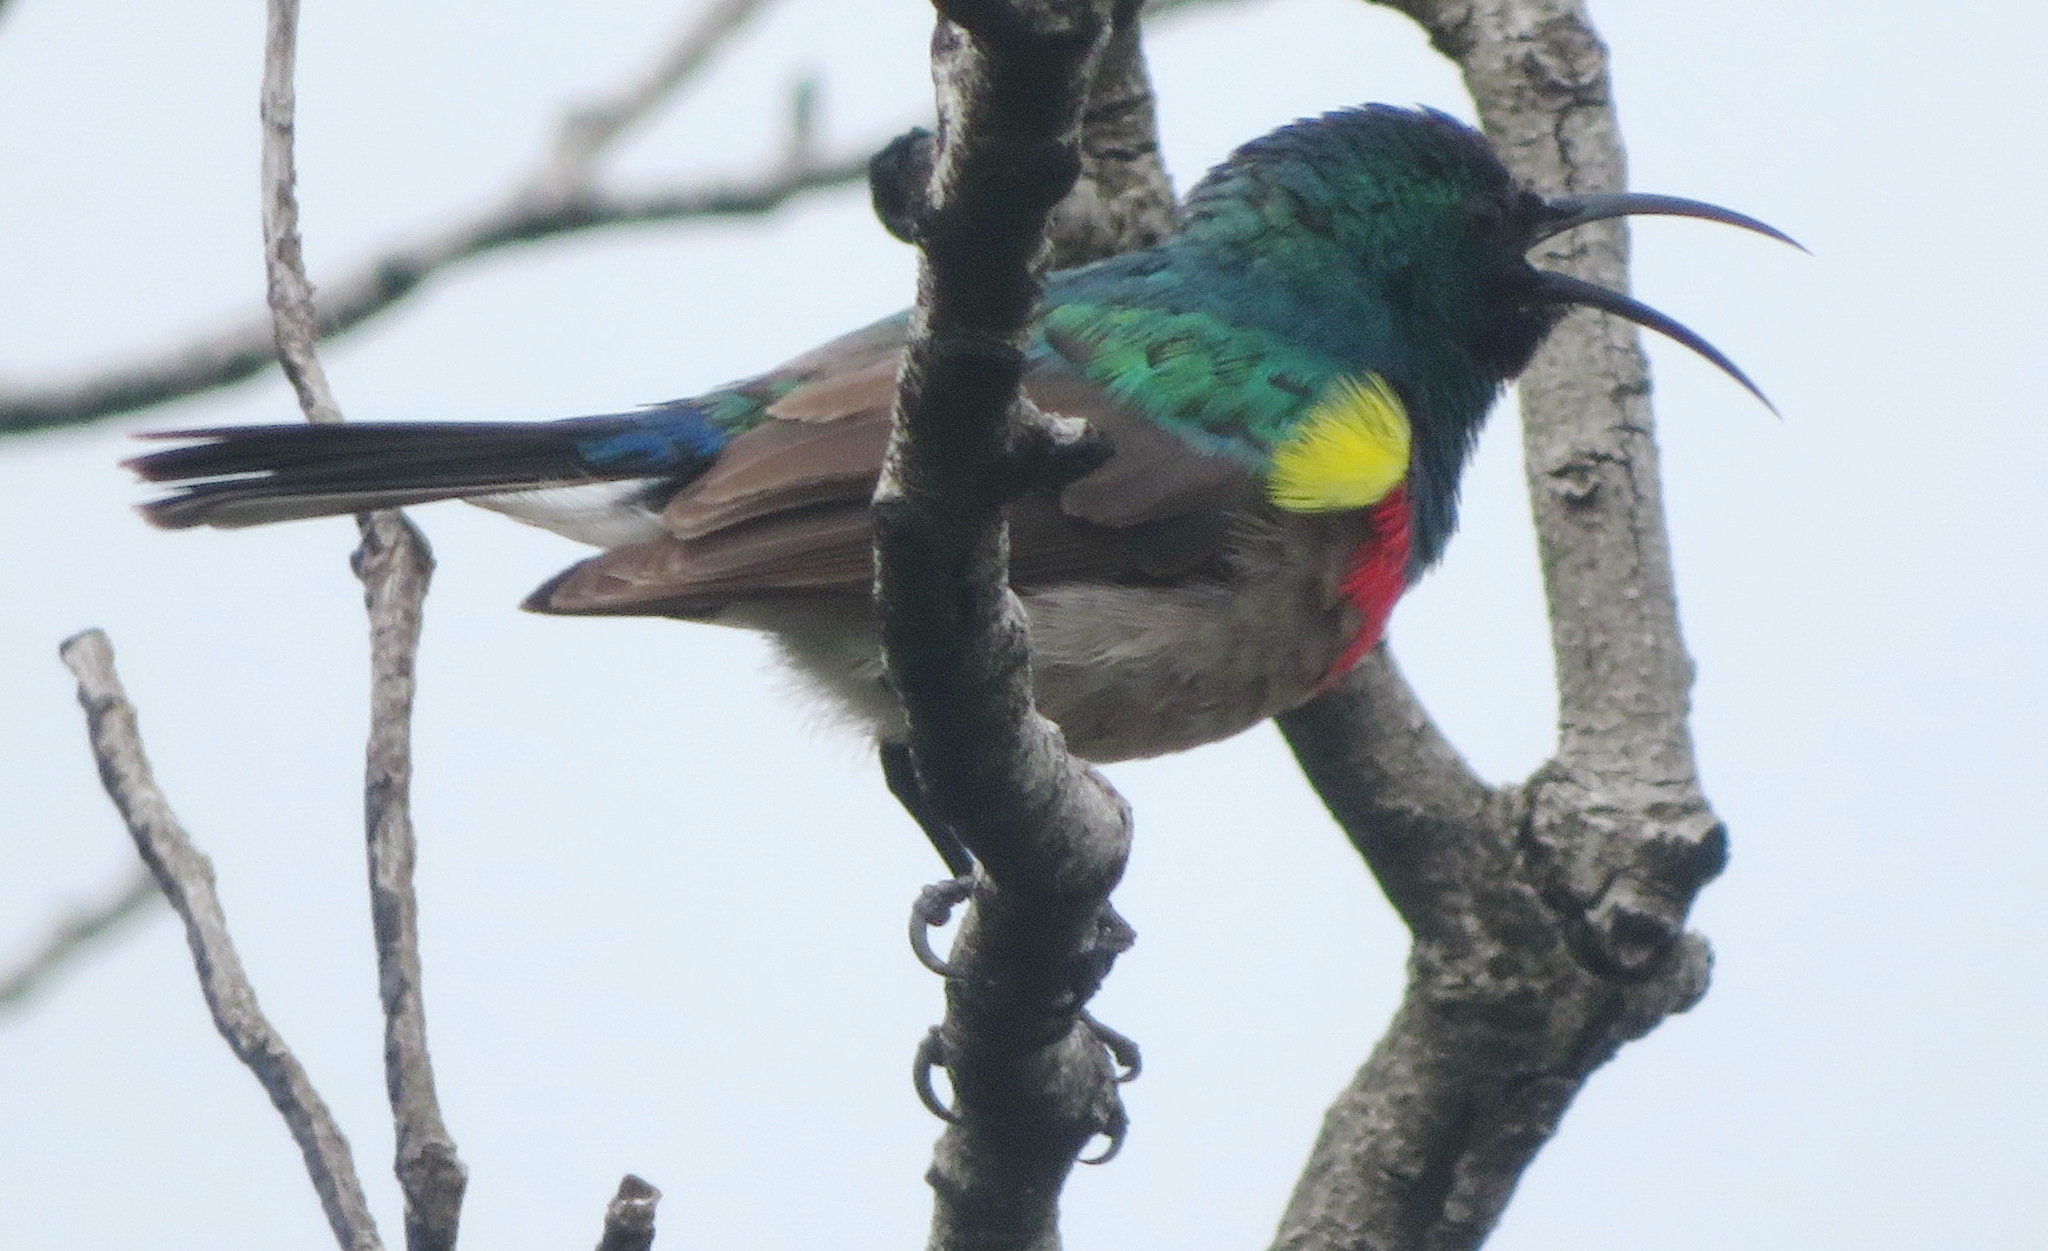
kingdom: Animalia
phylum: Chordata
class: Aves
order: Passeriformes
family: Nectariniidae
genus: Cinnyris
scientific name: Cinnyris chalybeus
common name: Southern double-collared sunbird
